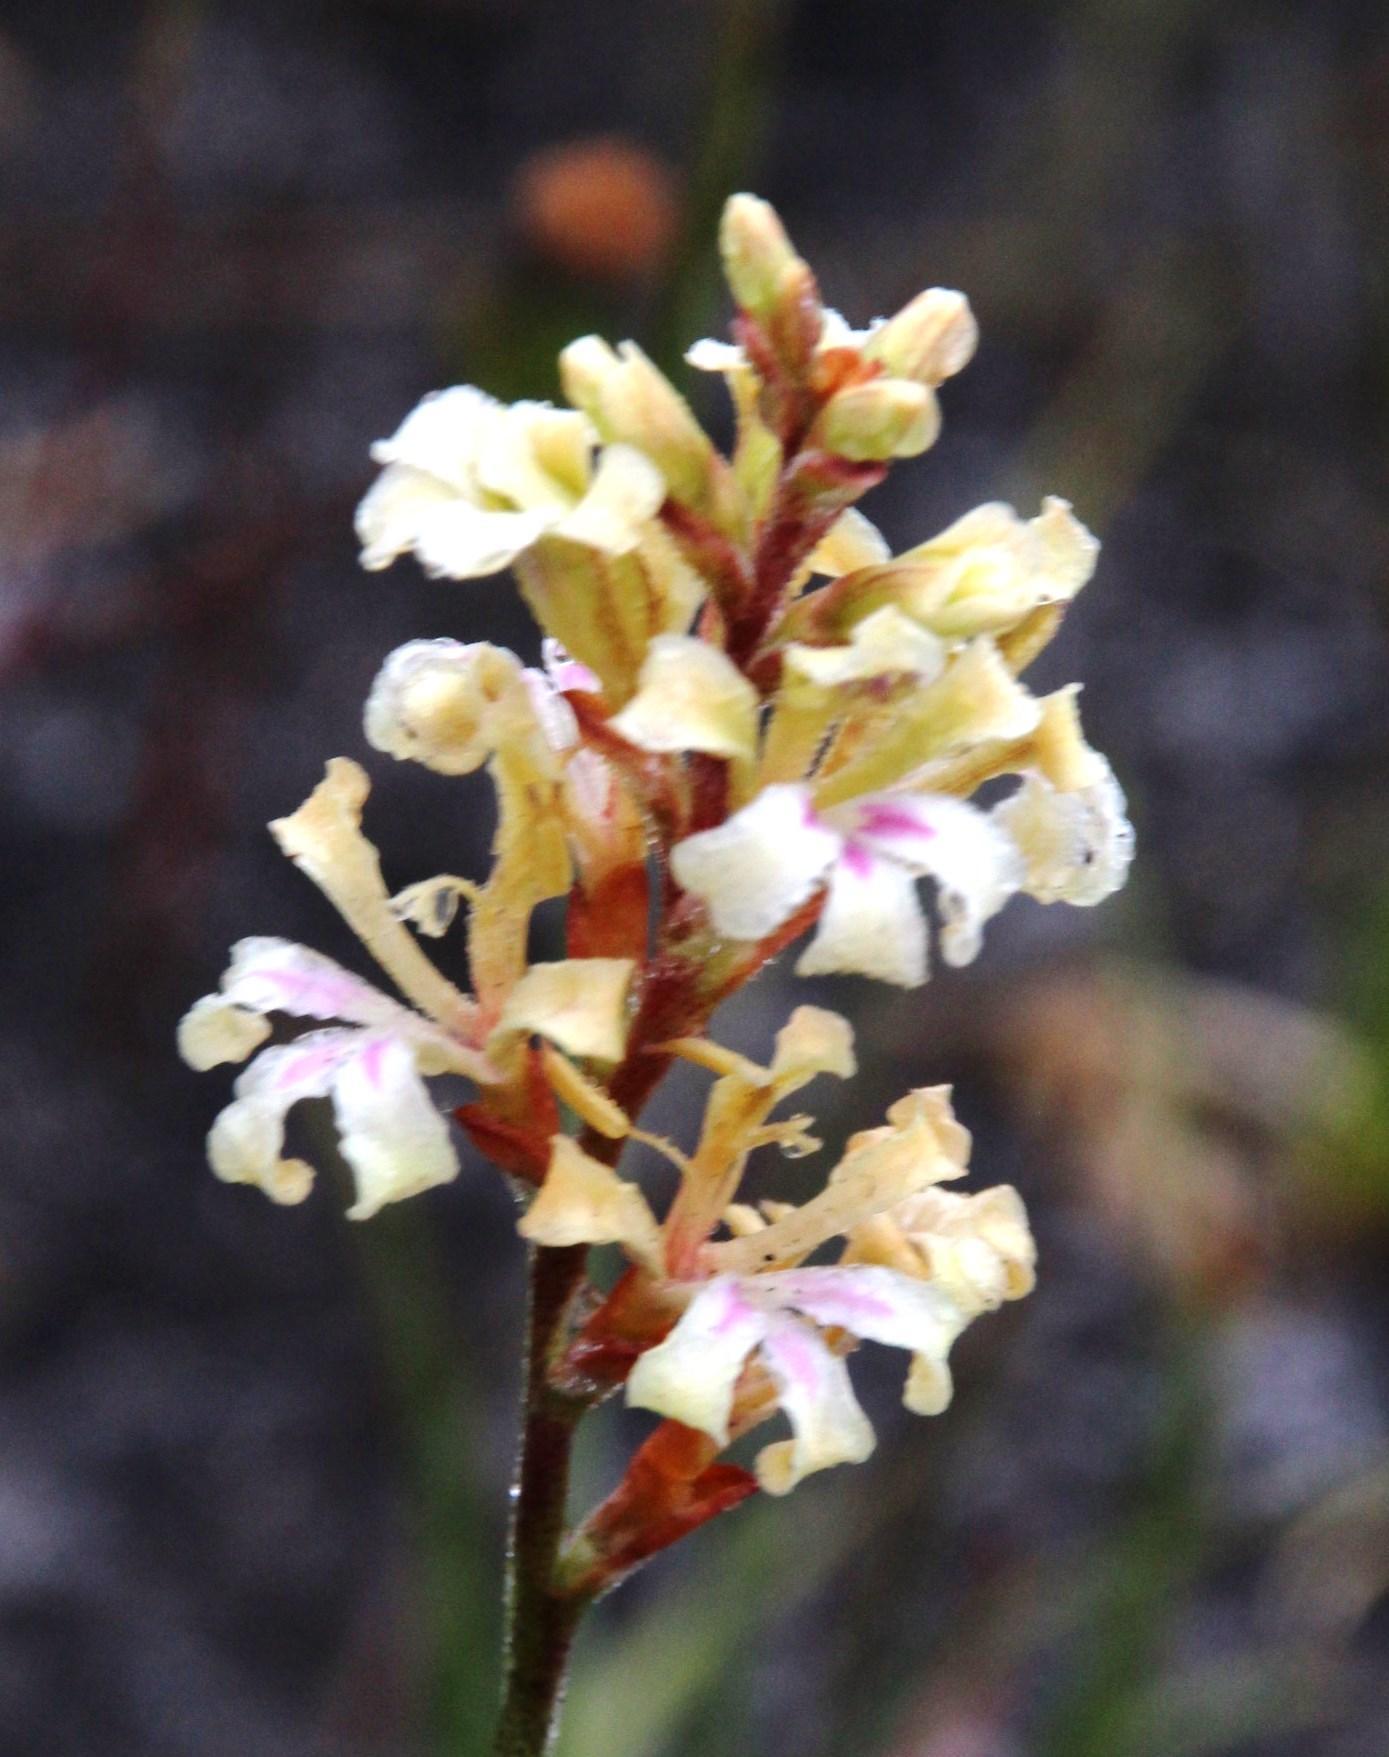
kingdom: Plantae
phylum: Tracheophyta
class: Liliopsida
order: Asparagales
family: Iridaceae
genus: Tritoniopsis
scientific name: Tritoniopsis unguicularis
